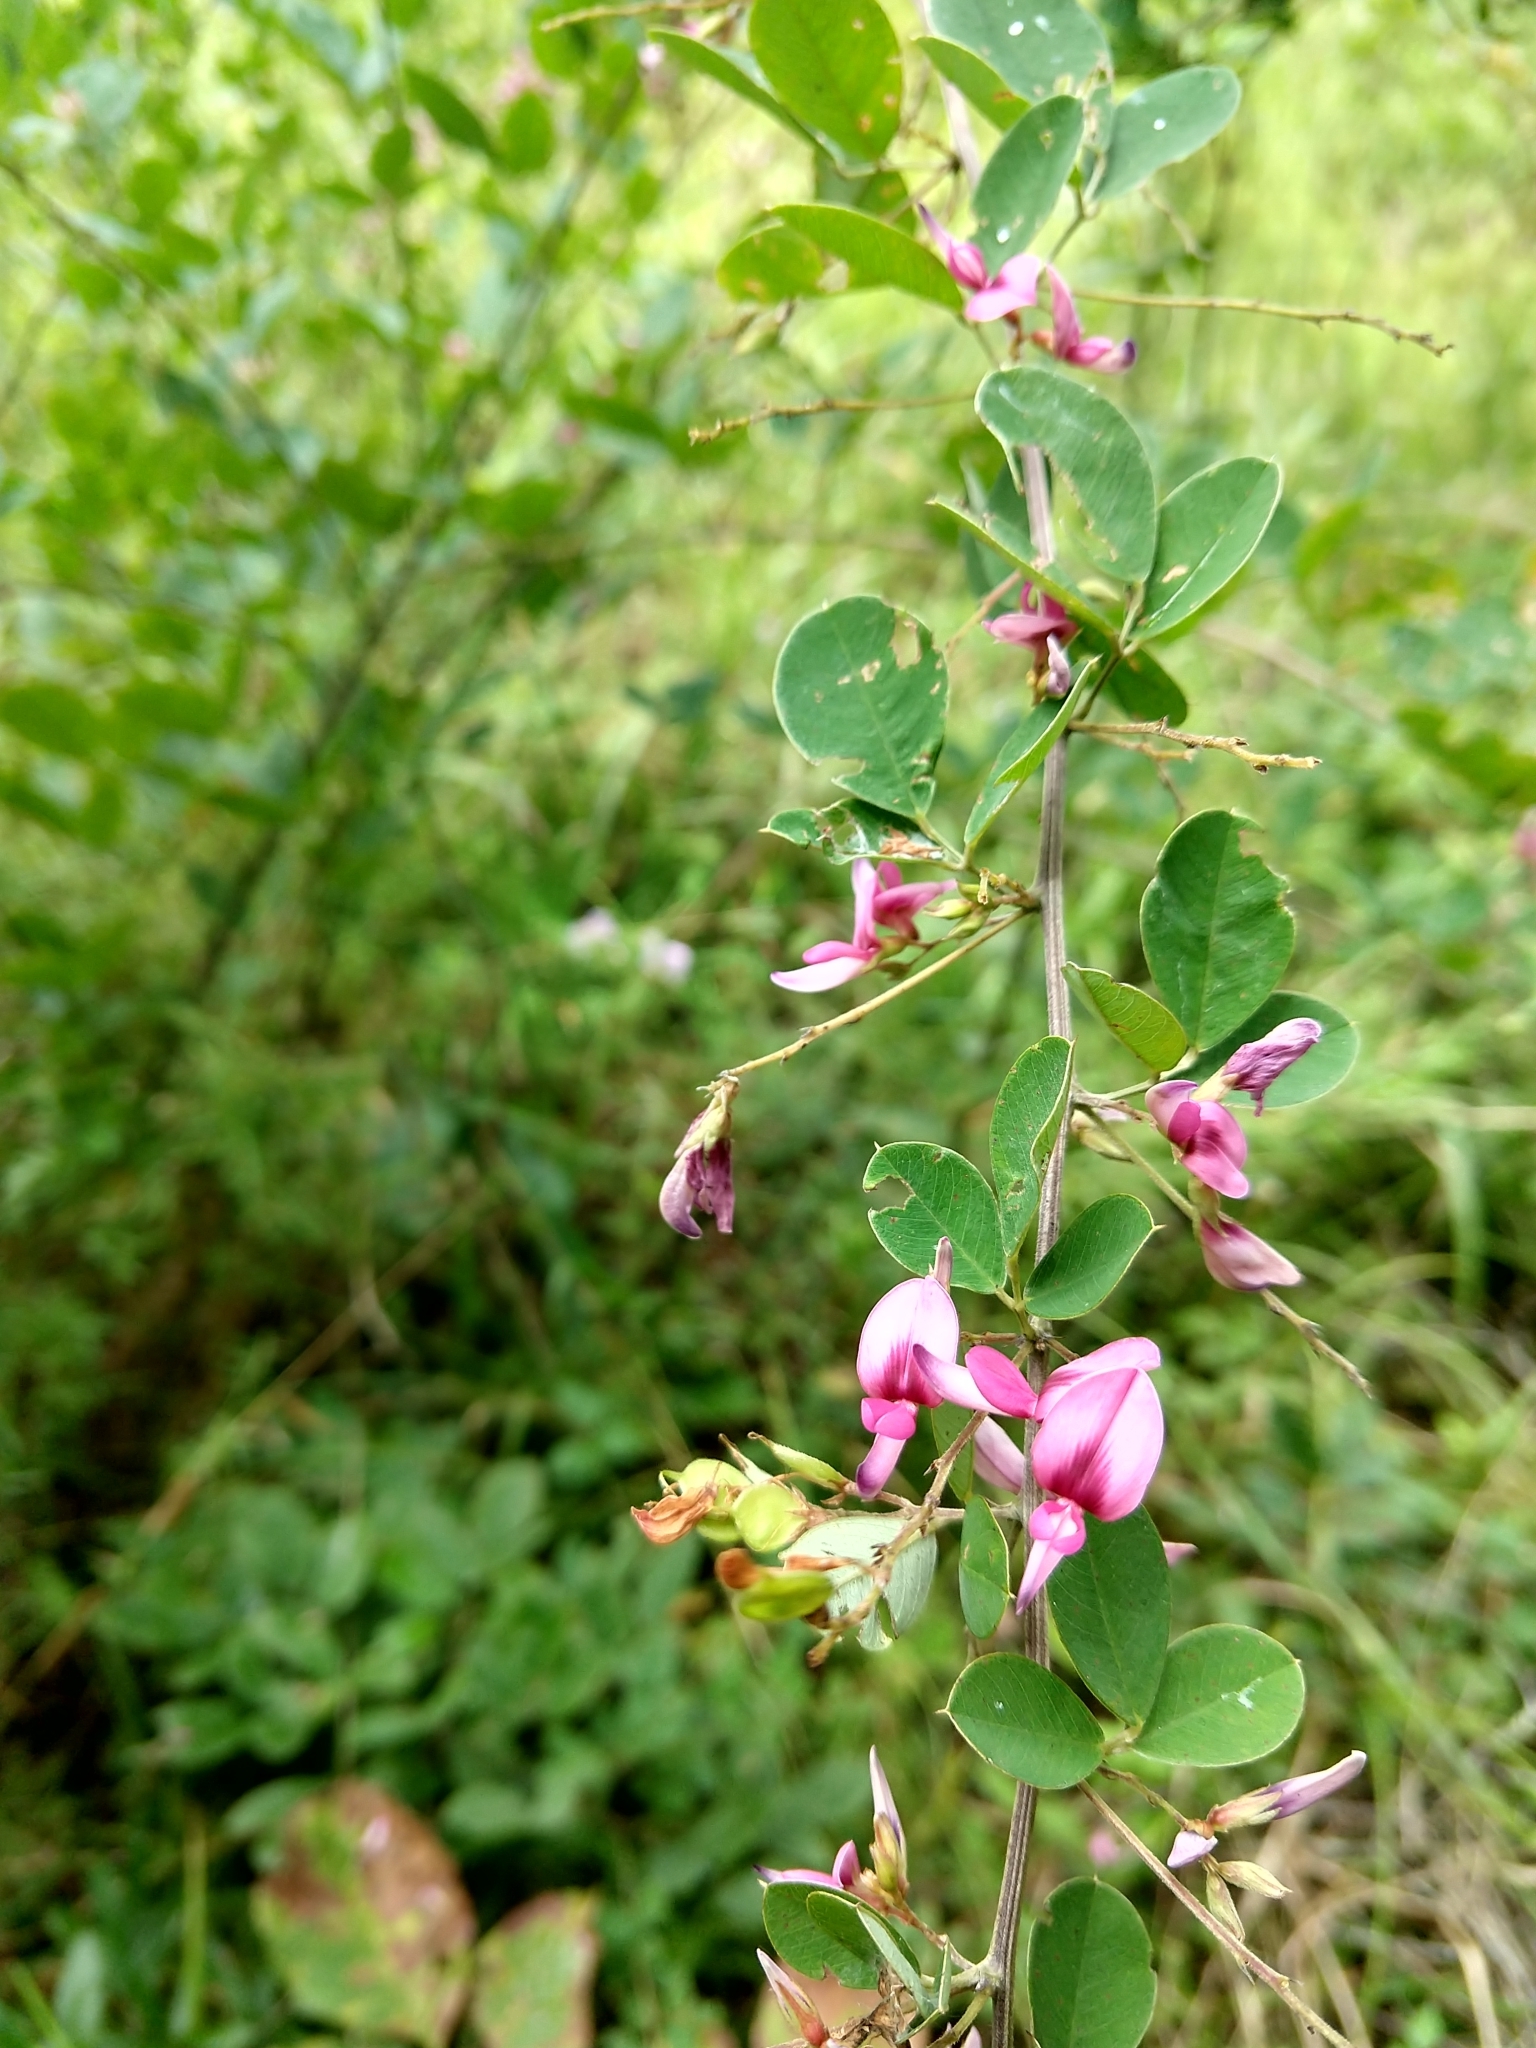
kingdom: Plantae
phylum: Tracheophyta
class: Magnoliopsida
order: Fabales
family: Fabaceae
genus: Lespedeza
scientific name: Lespedeza bicolor
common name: Shrub lespedeza
